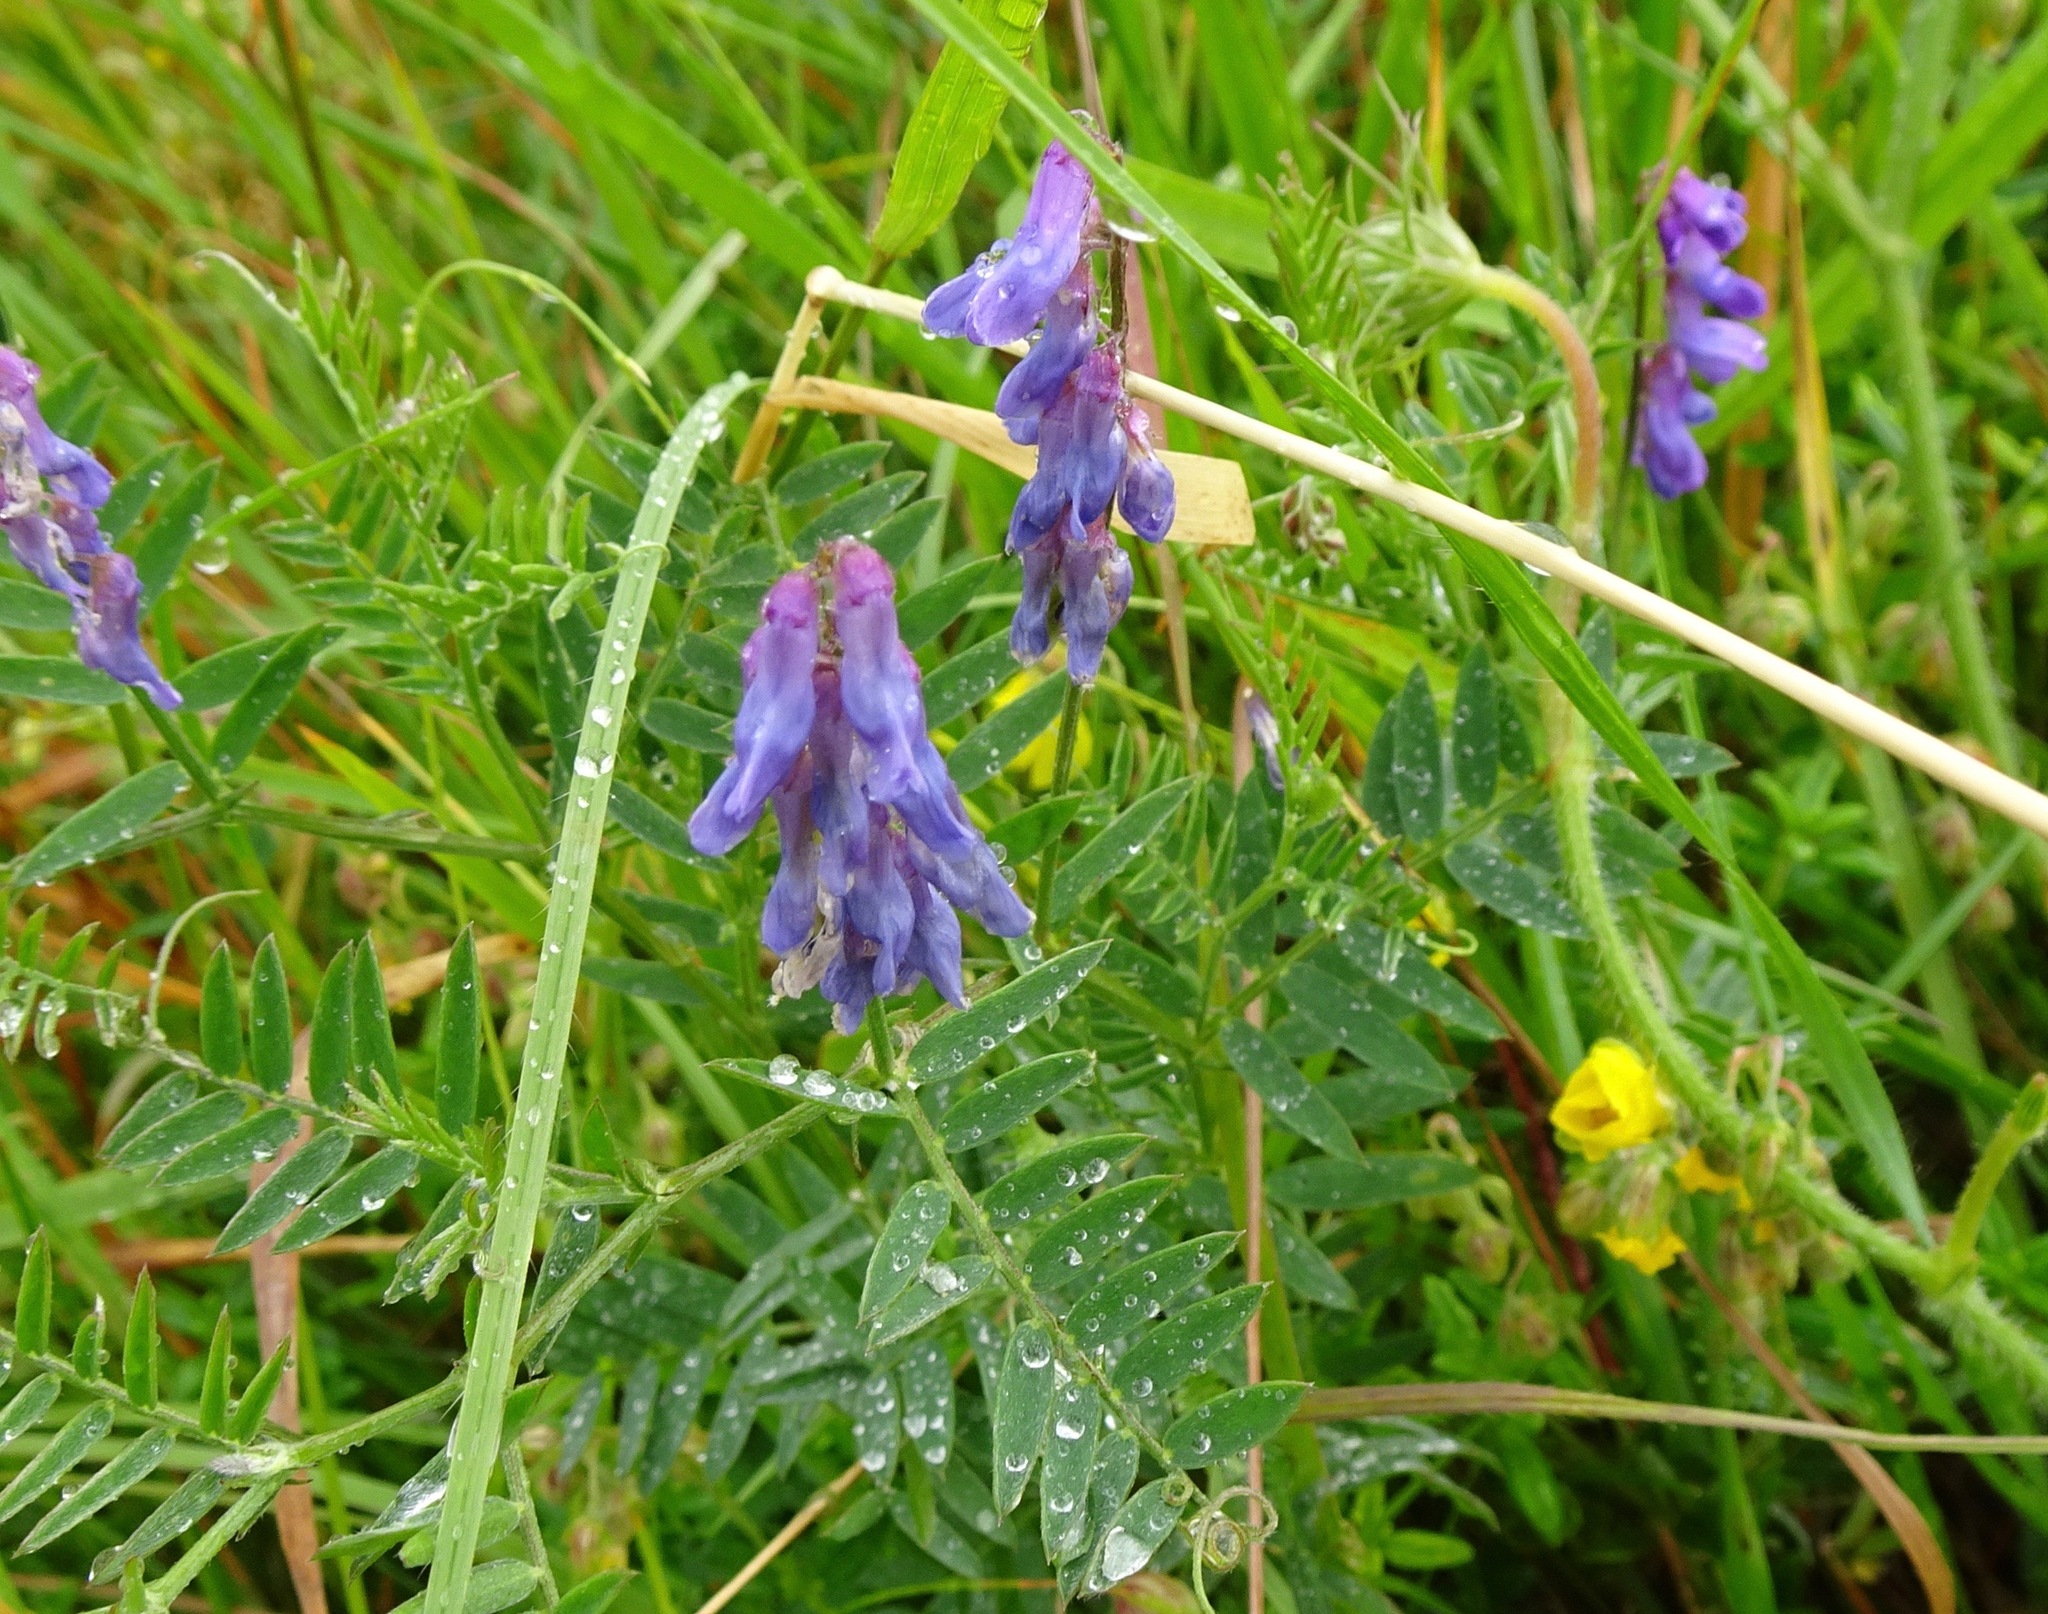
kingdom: Plantae
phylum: Tracheophyta
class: Magnoliopsida
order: Fabales
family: Fabaceae
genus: Vicia
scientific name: Vicia cracca
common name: Bird vetch
